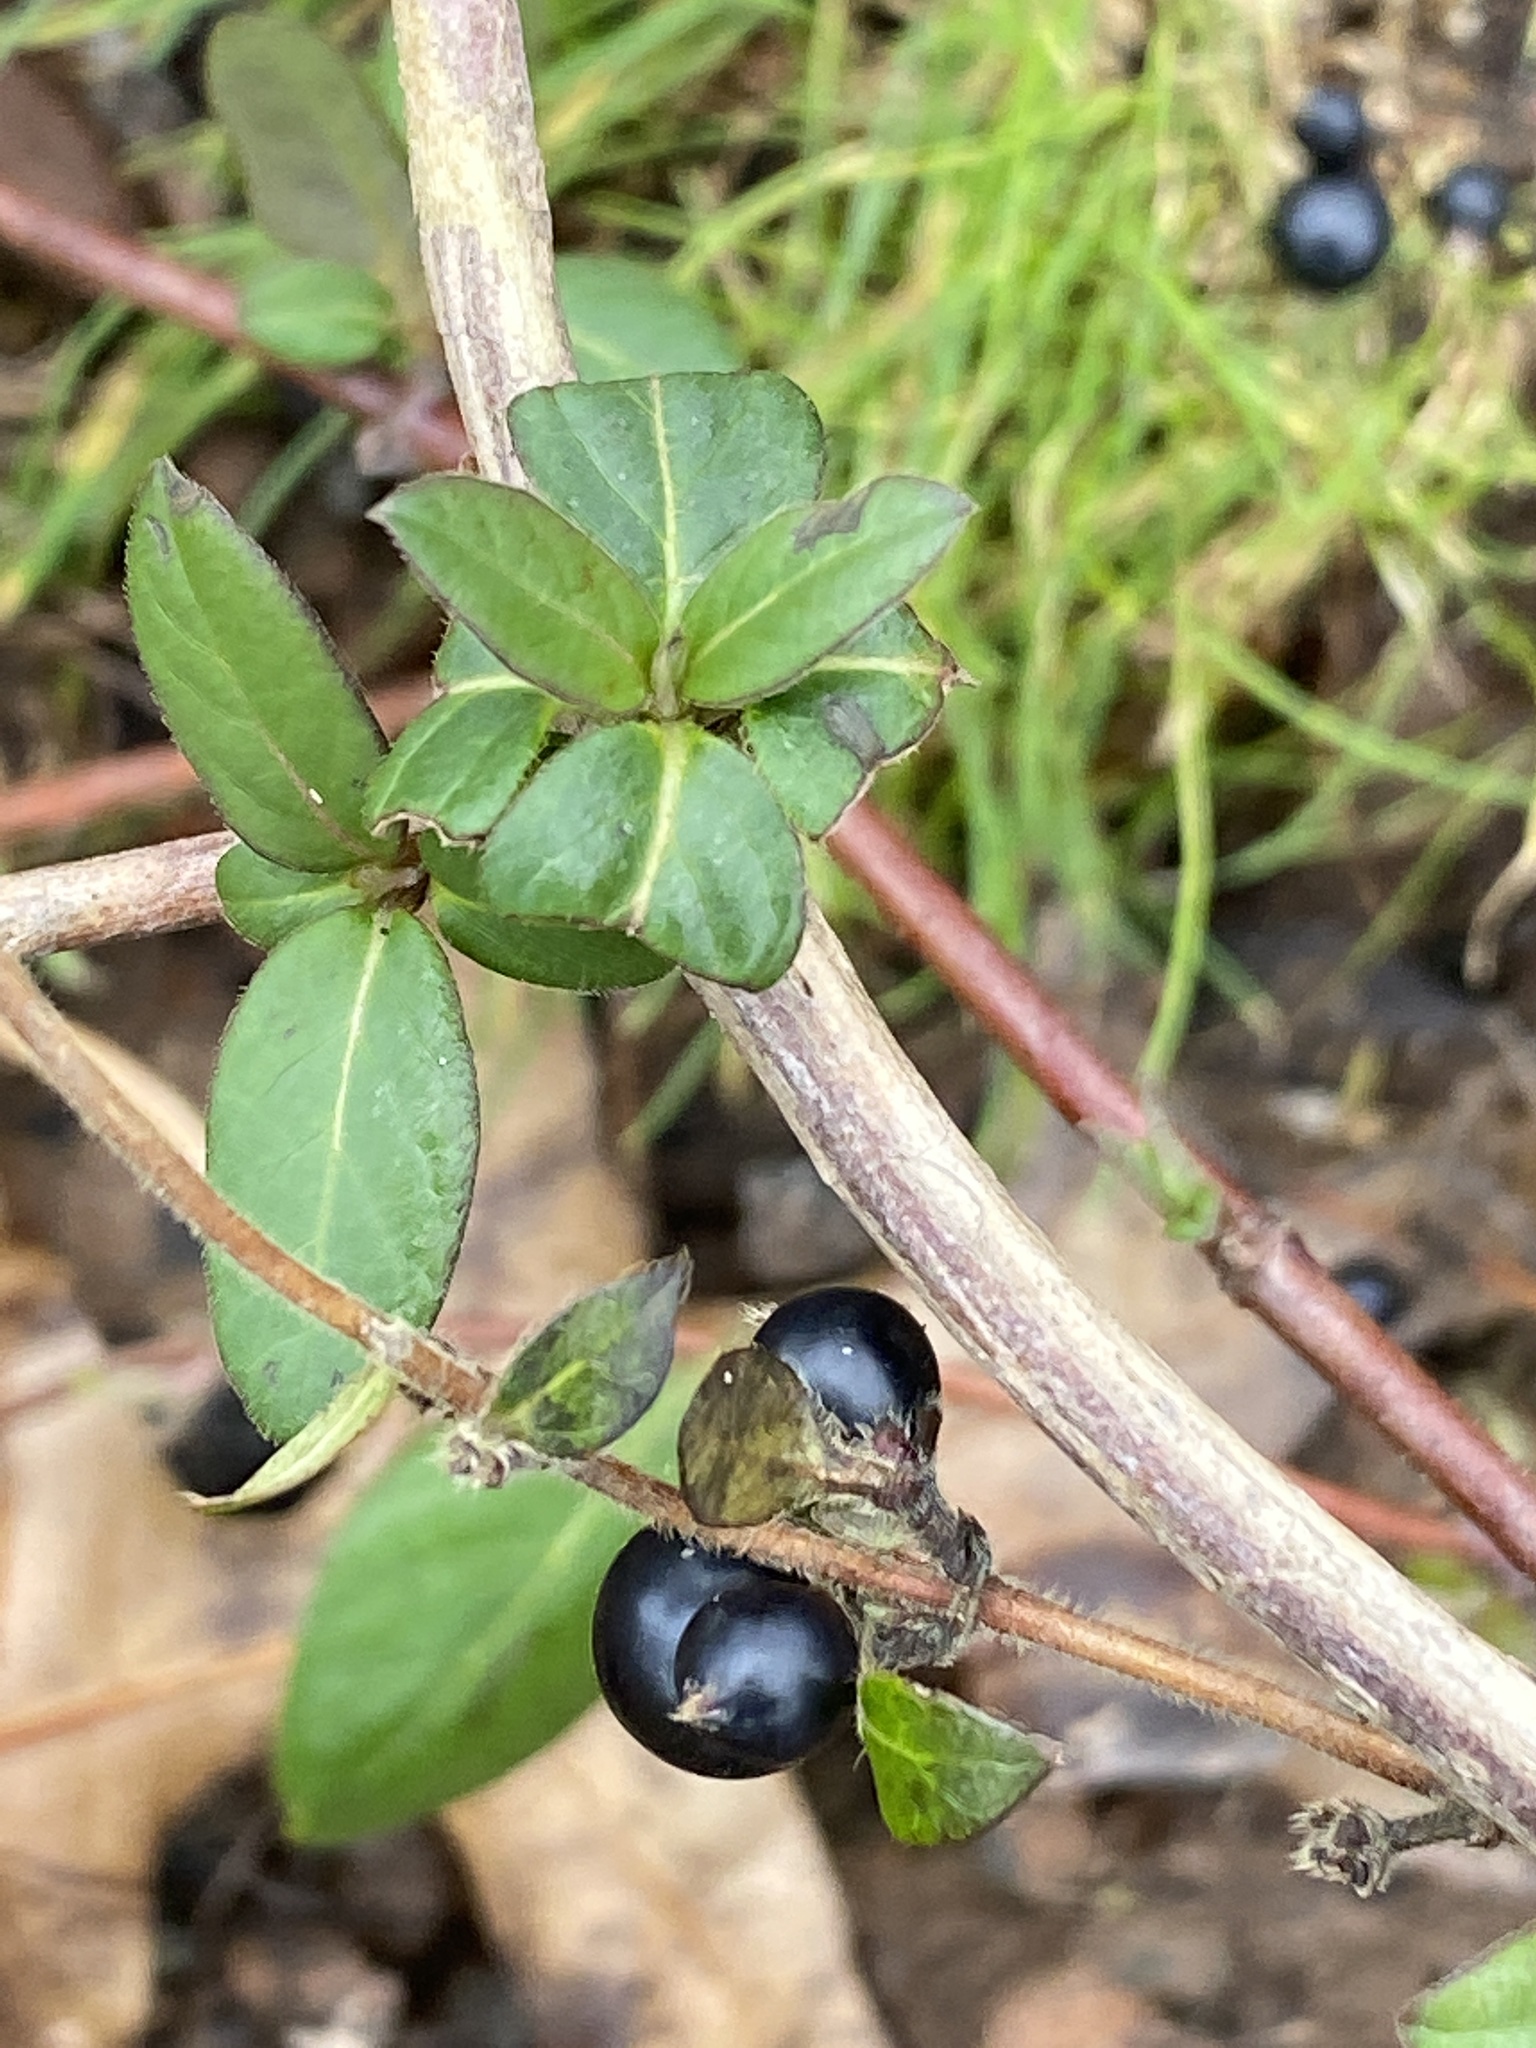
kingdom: Plantae
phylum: Tracheophyta
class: Magnoliopsida
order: Dipsacales
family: Caprifoliaceae
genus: Lonicera
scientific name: Lonicera japonica
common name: Japanese honeysuckle
